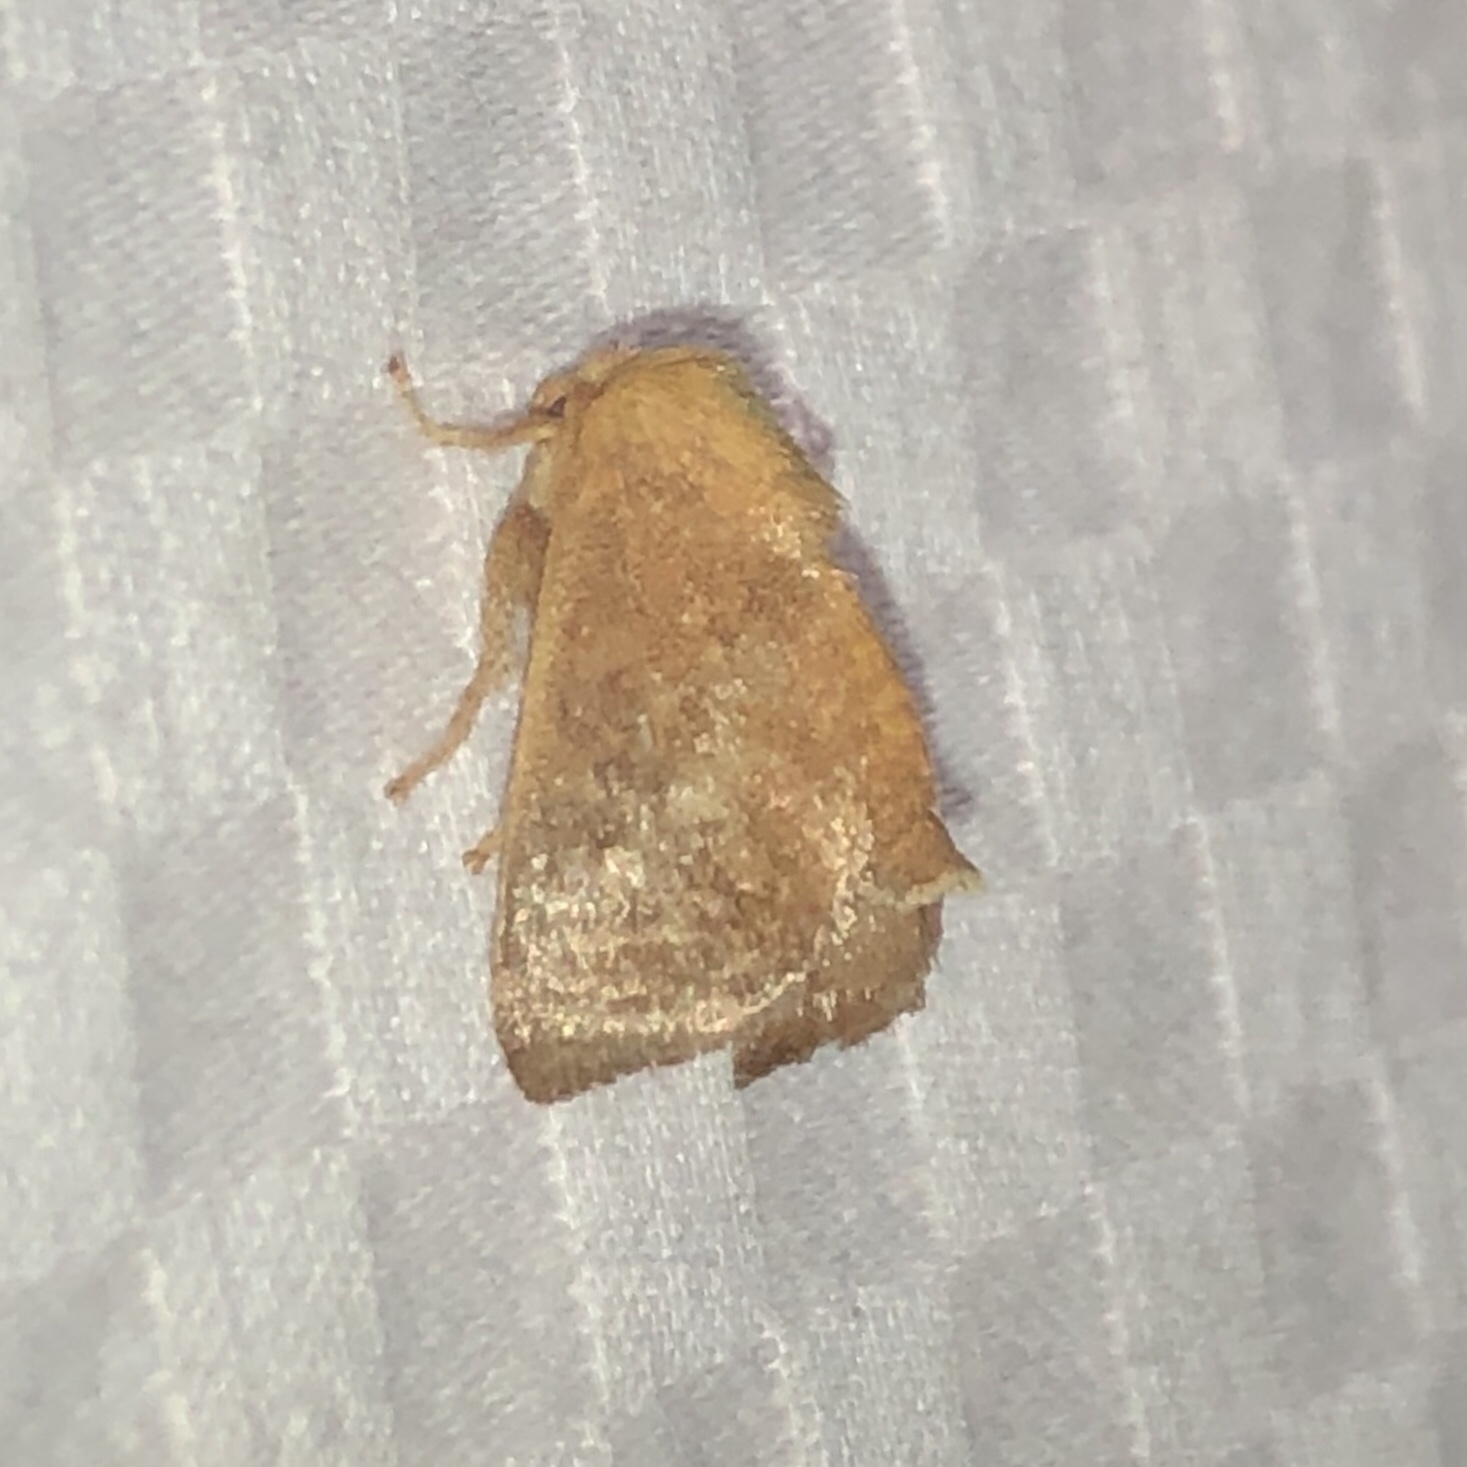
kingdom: Animalia
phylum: Arthropoda
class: Insecta
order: Lepidoptera
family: Limacodidae
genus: Isa
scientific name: Isa textula
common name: Crowned slug moth
